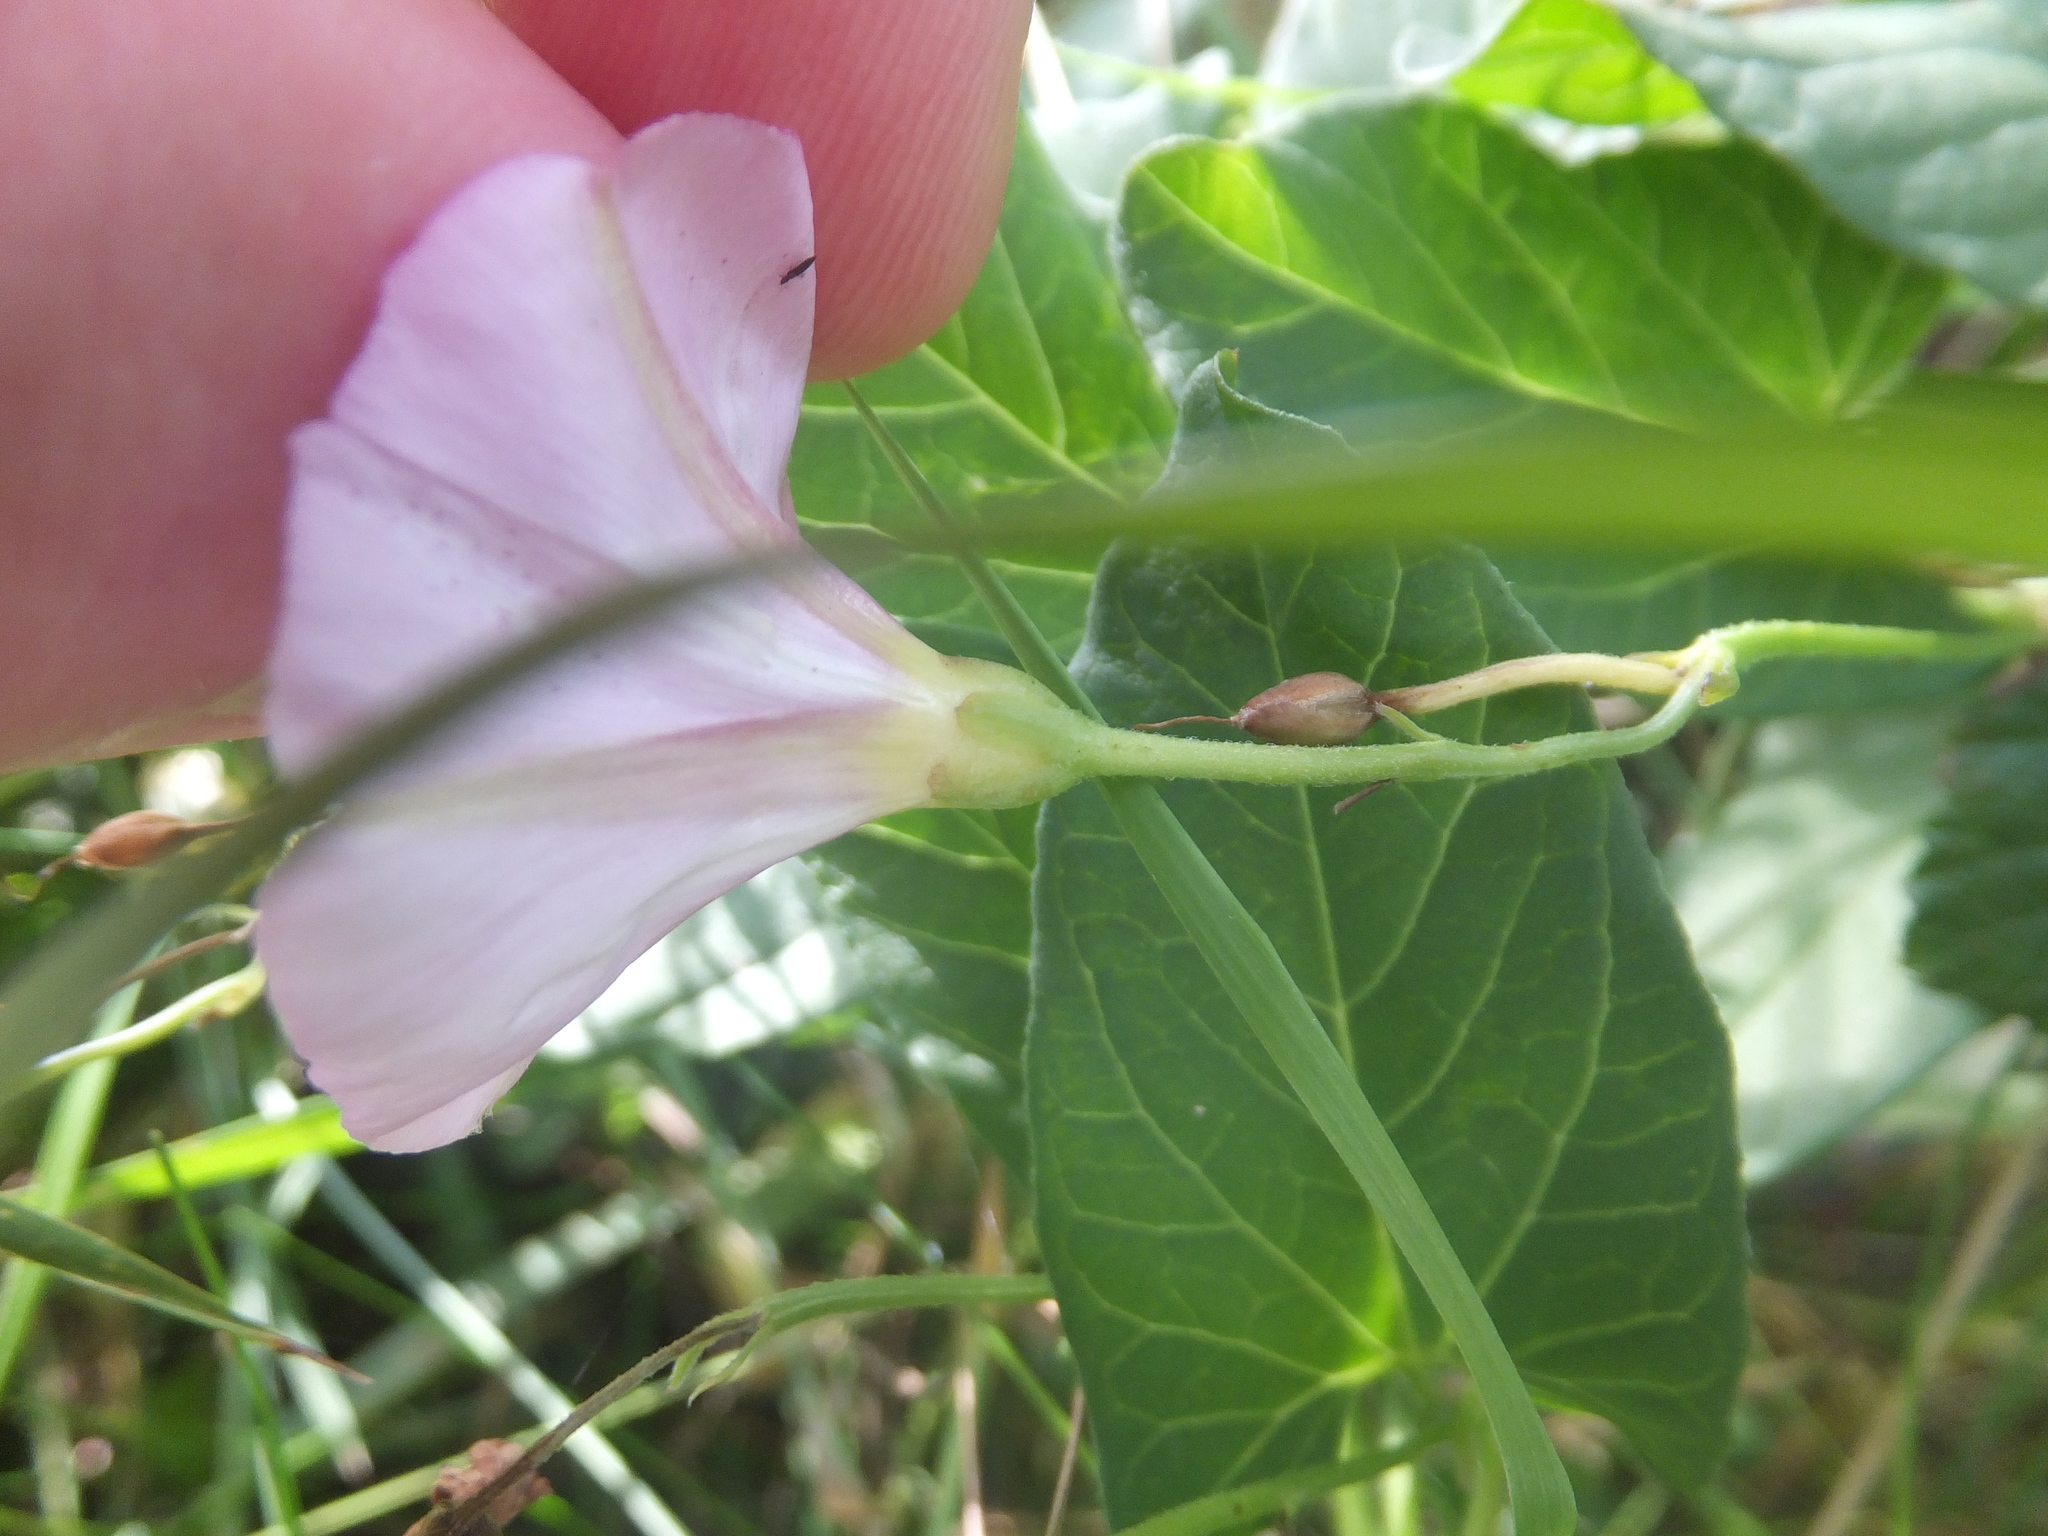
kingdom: Plantae
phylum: Tracheophyta
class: Magnoliopsida
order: Solanales
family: Convolvulaceae
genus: Convolvulus
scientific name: Convolvulus arvensis
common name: Field bindweed
